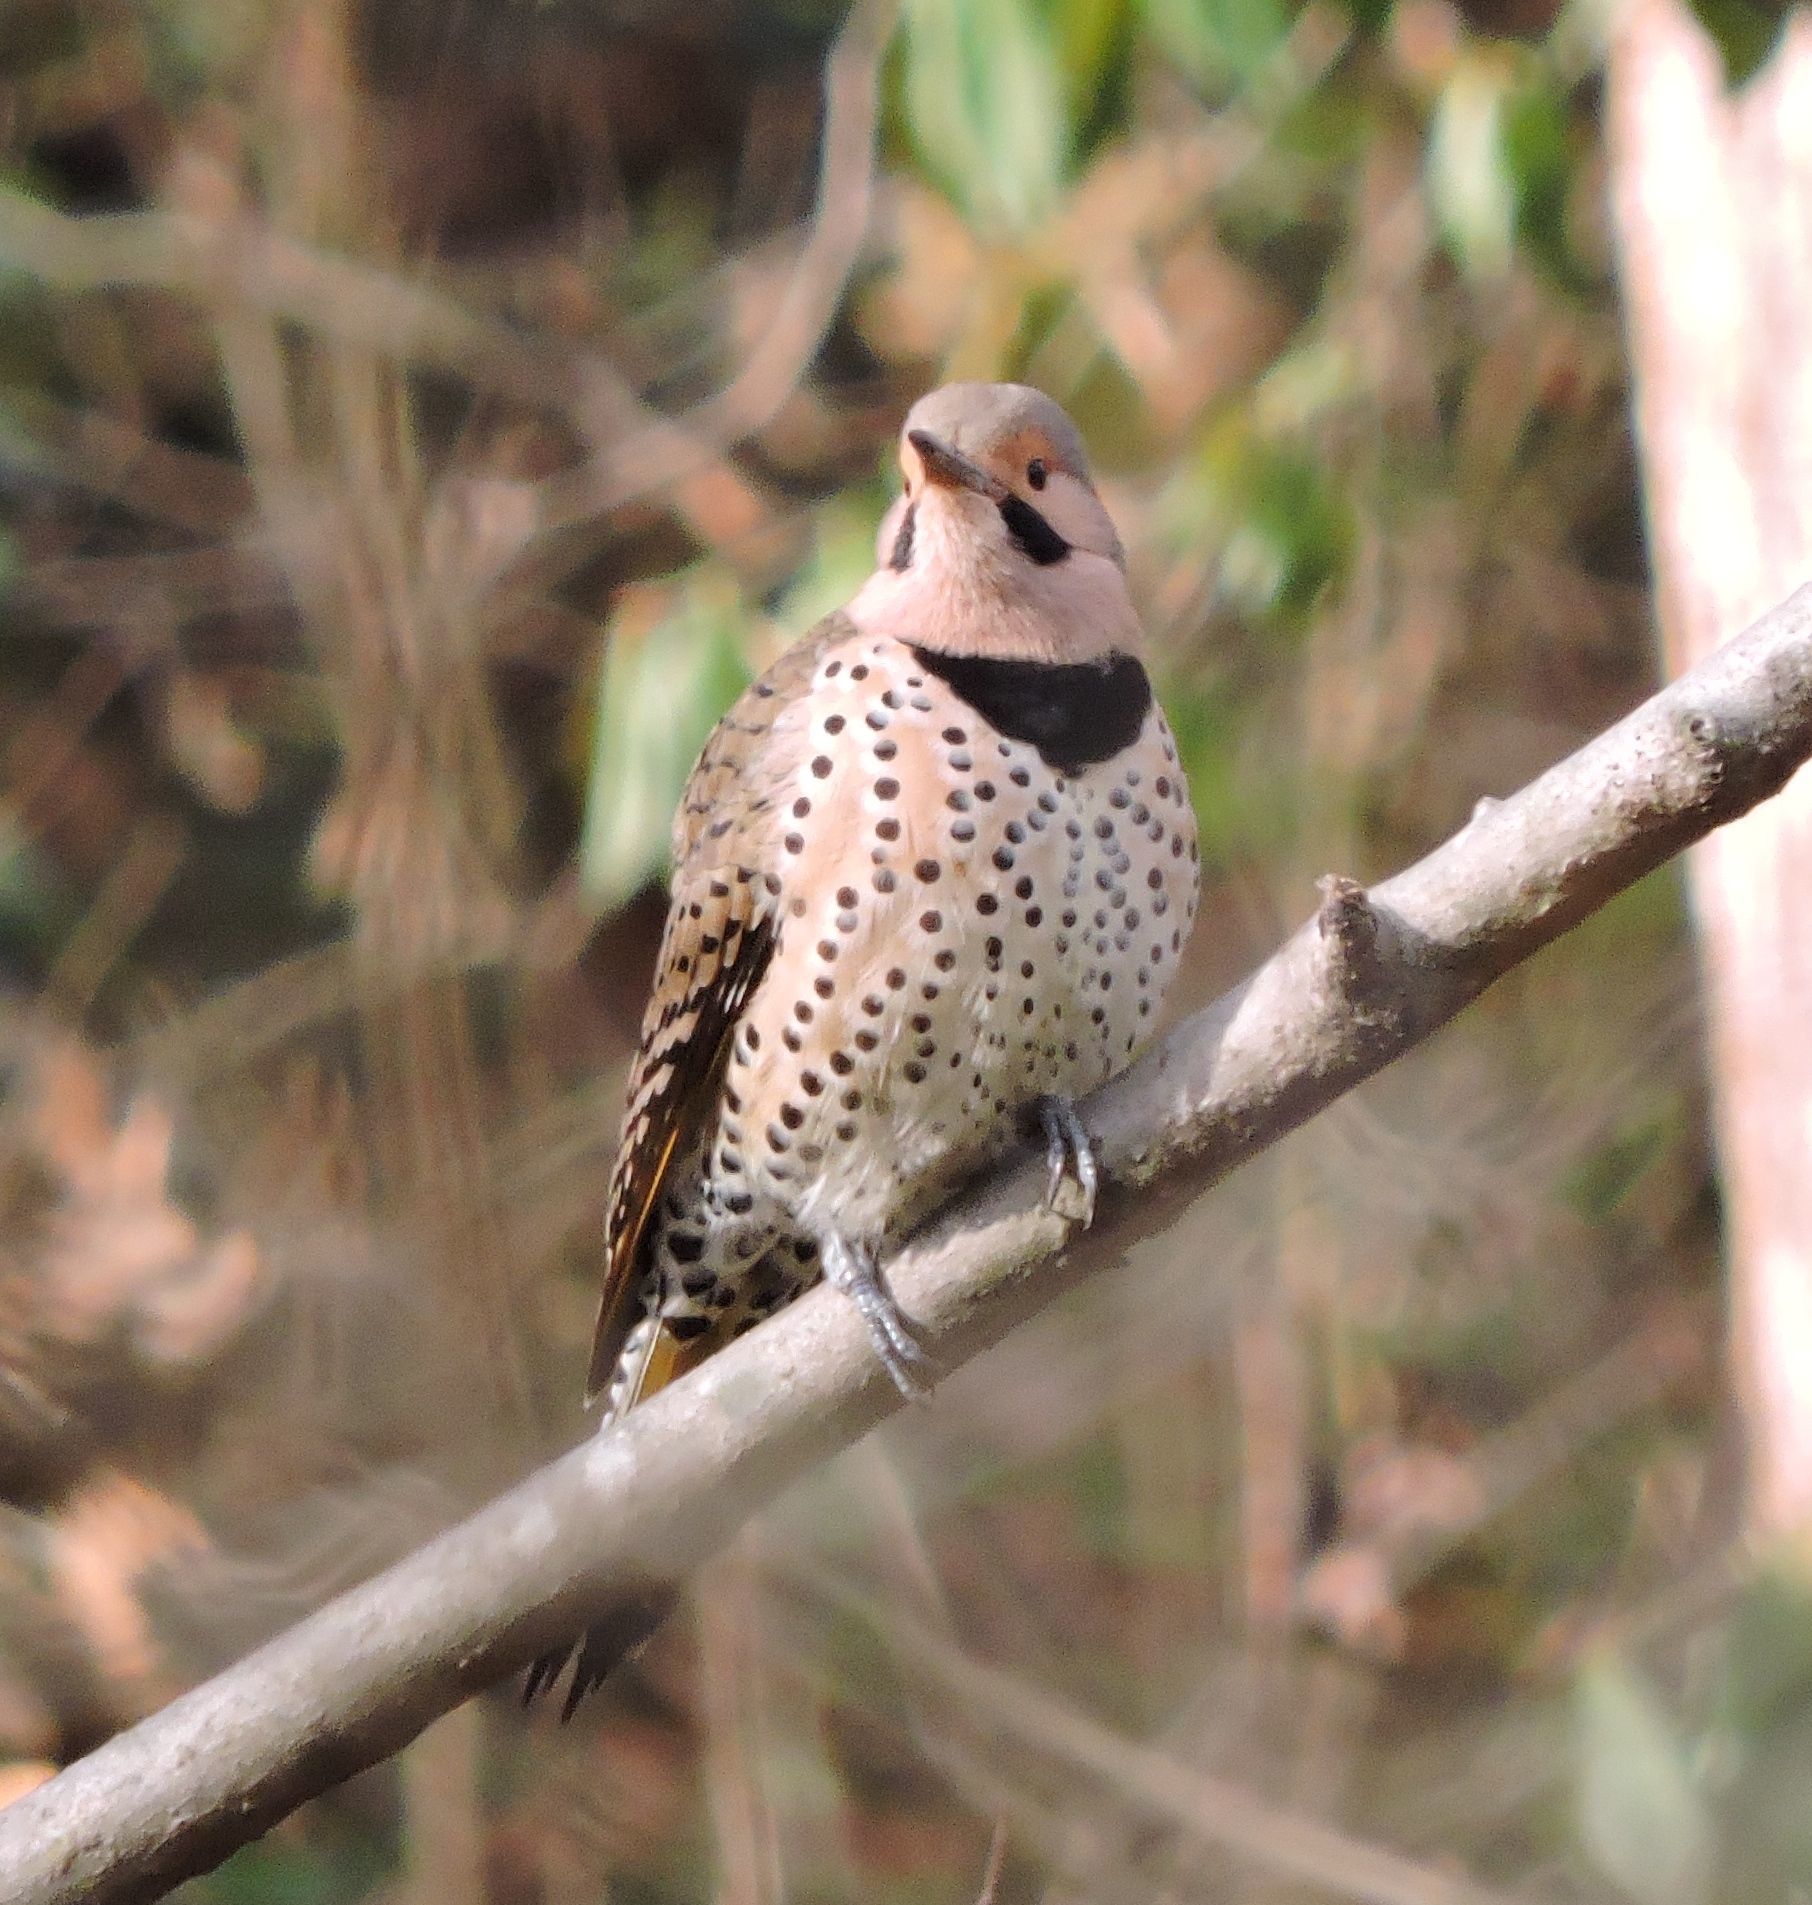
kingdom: Animalia
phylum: Chordata
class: Aves
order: Piciformes
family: Picidae
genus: Colaptes
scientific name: Colaptes auratus
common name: Northern flicker
